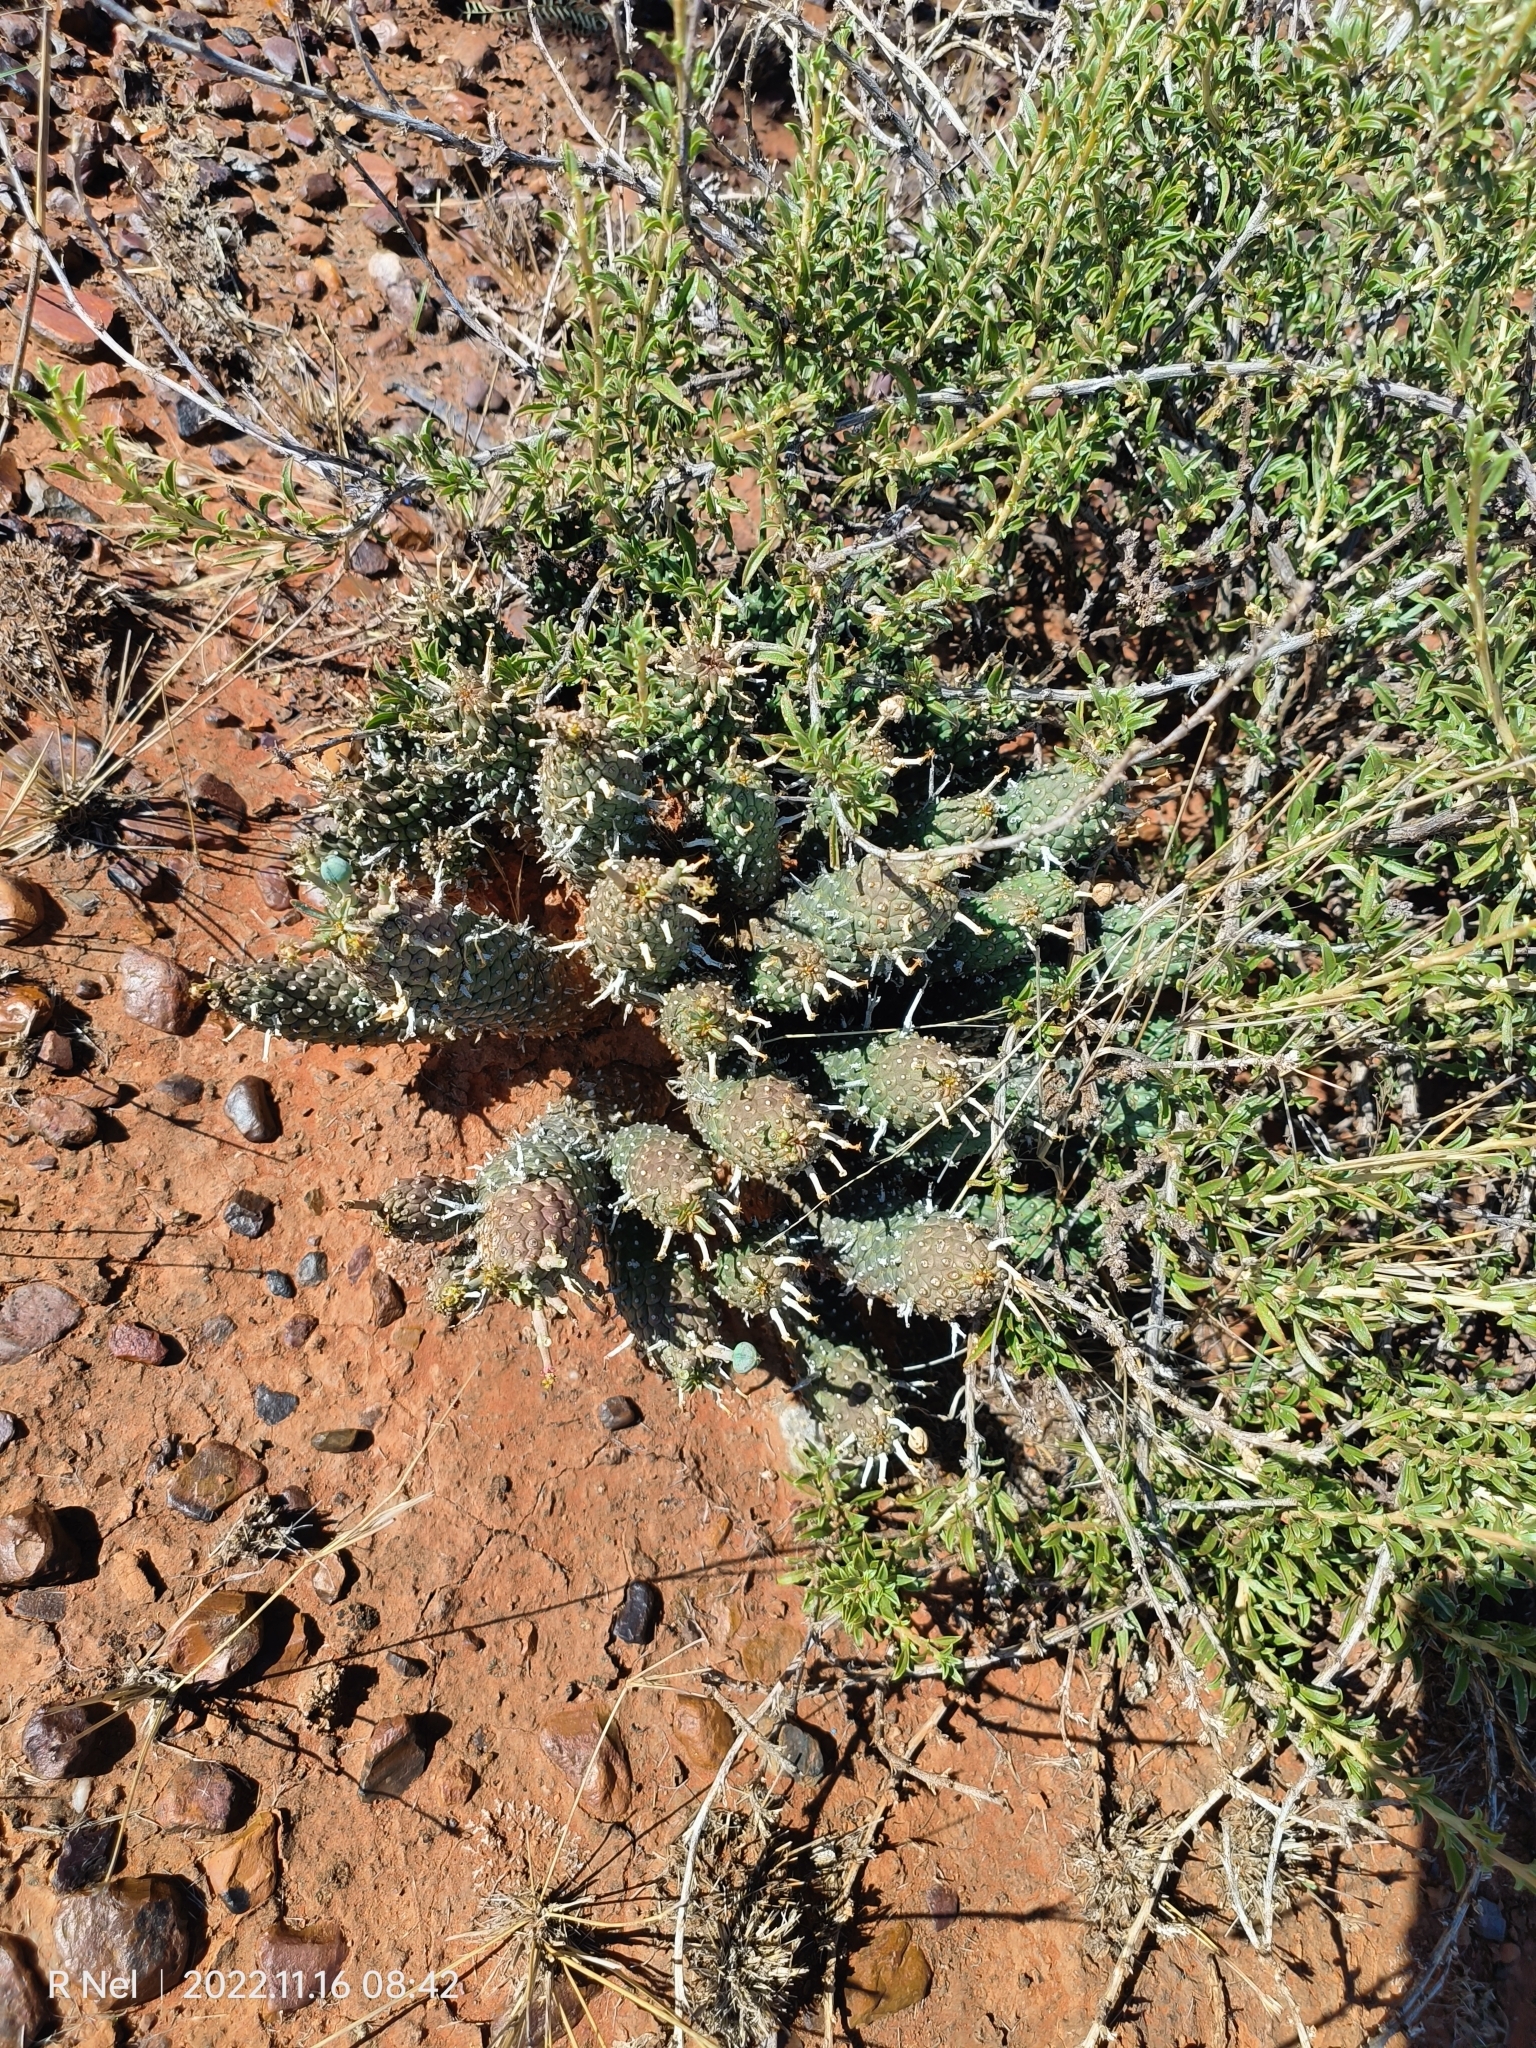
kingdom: Plantae
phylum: Tracheophyta
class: Magnoliopsida
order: Malpighiales
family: Euphorbiaceae
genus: Euphorbia
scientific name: Euphorbia braunsii
